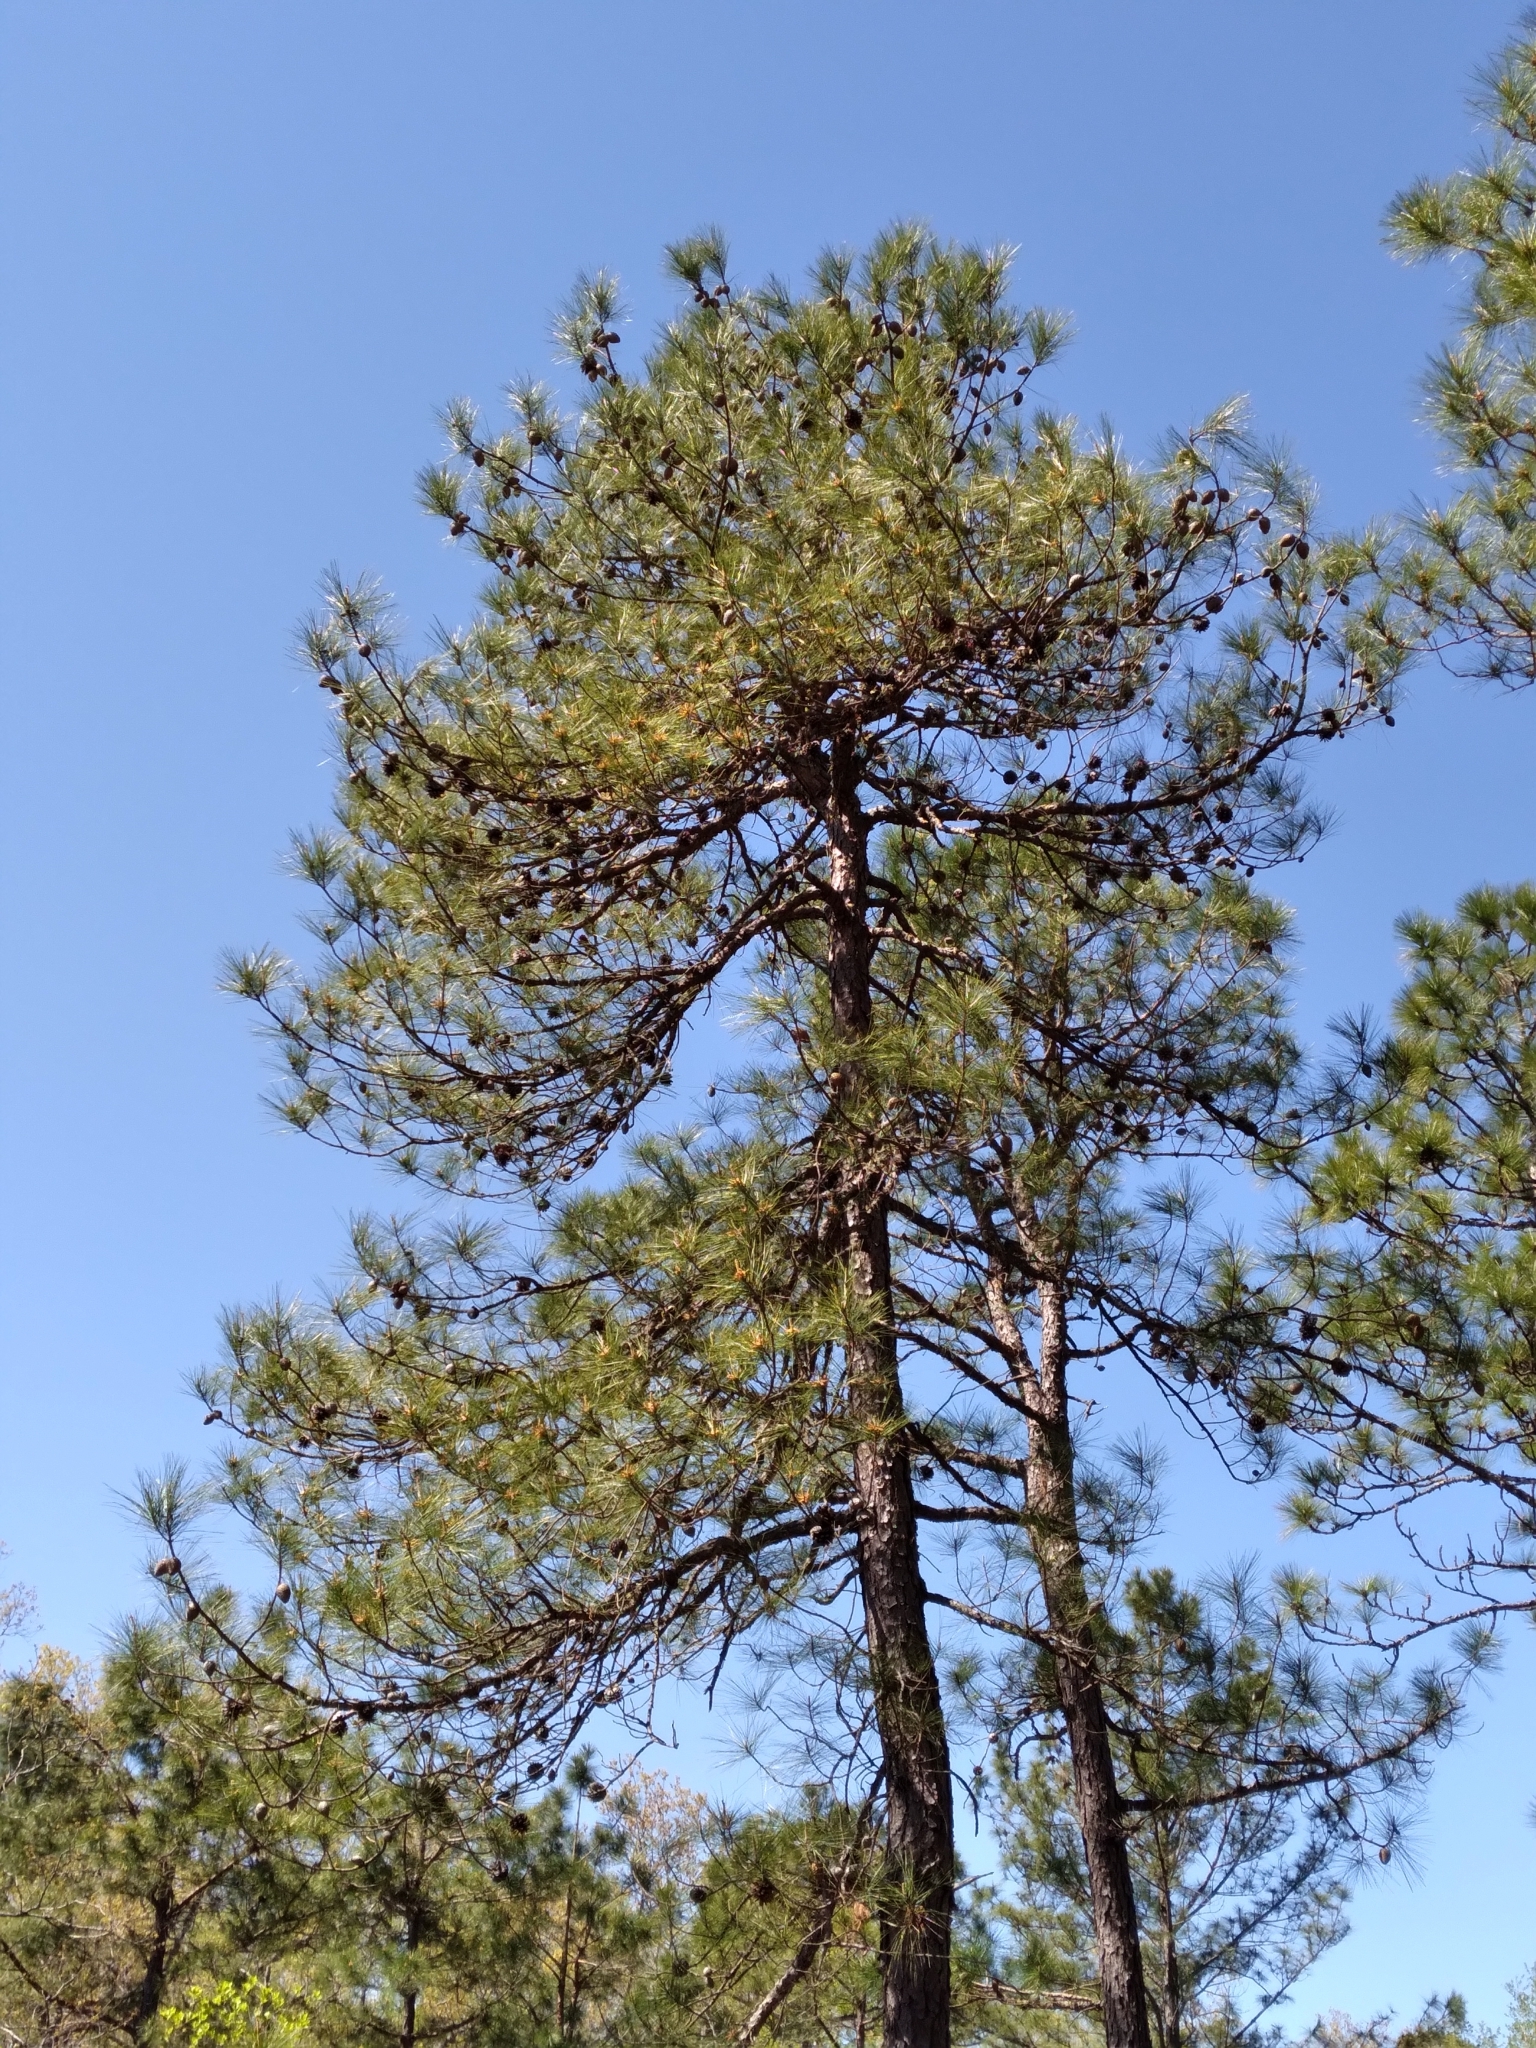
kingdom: Plantae
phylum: Tracheophyta
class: Pinopsida
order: Pinales
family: Pinaceae
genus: Pinus
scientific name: Pinus serotina
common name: Marsh pine
